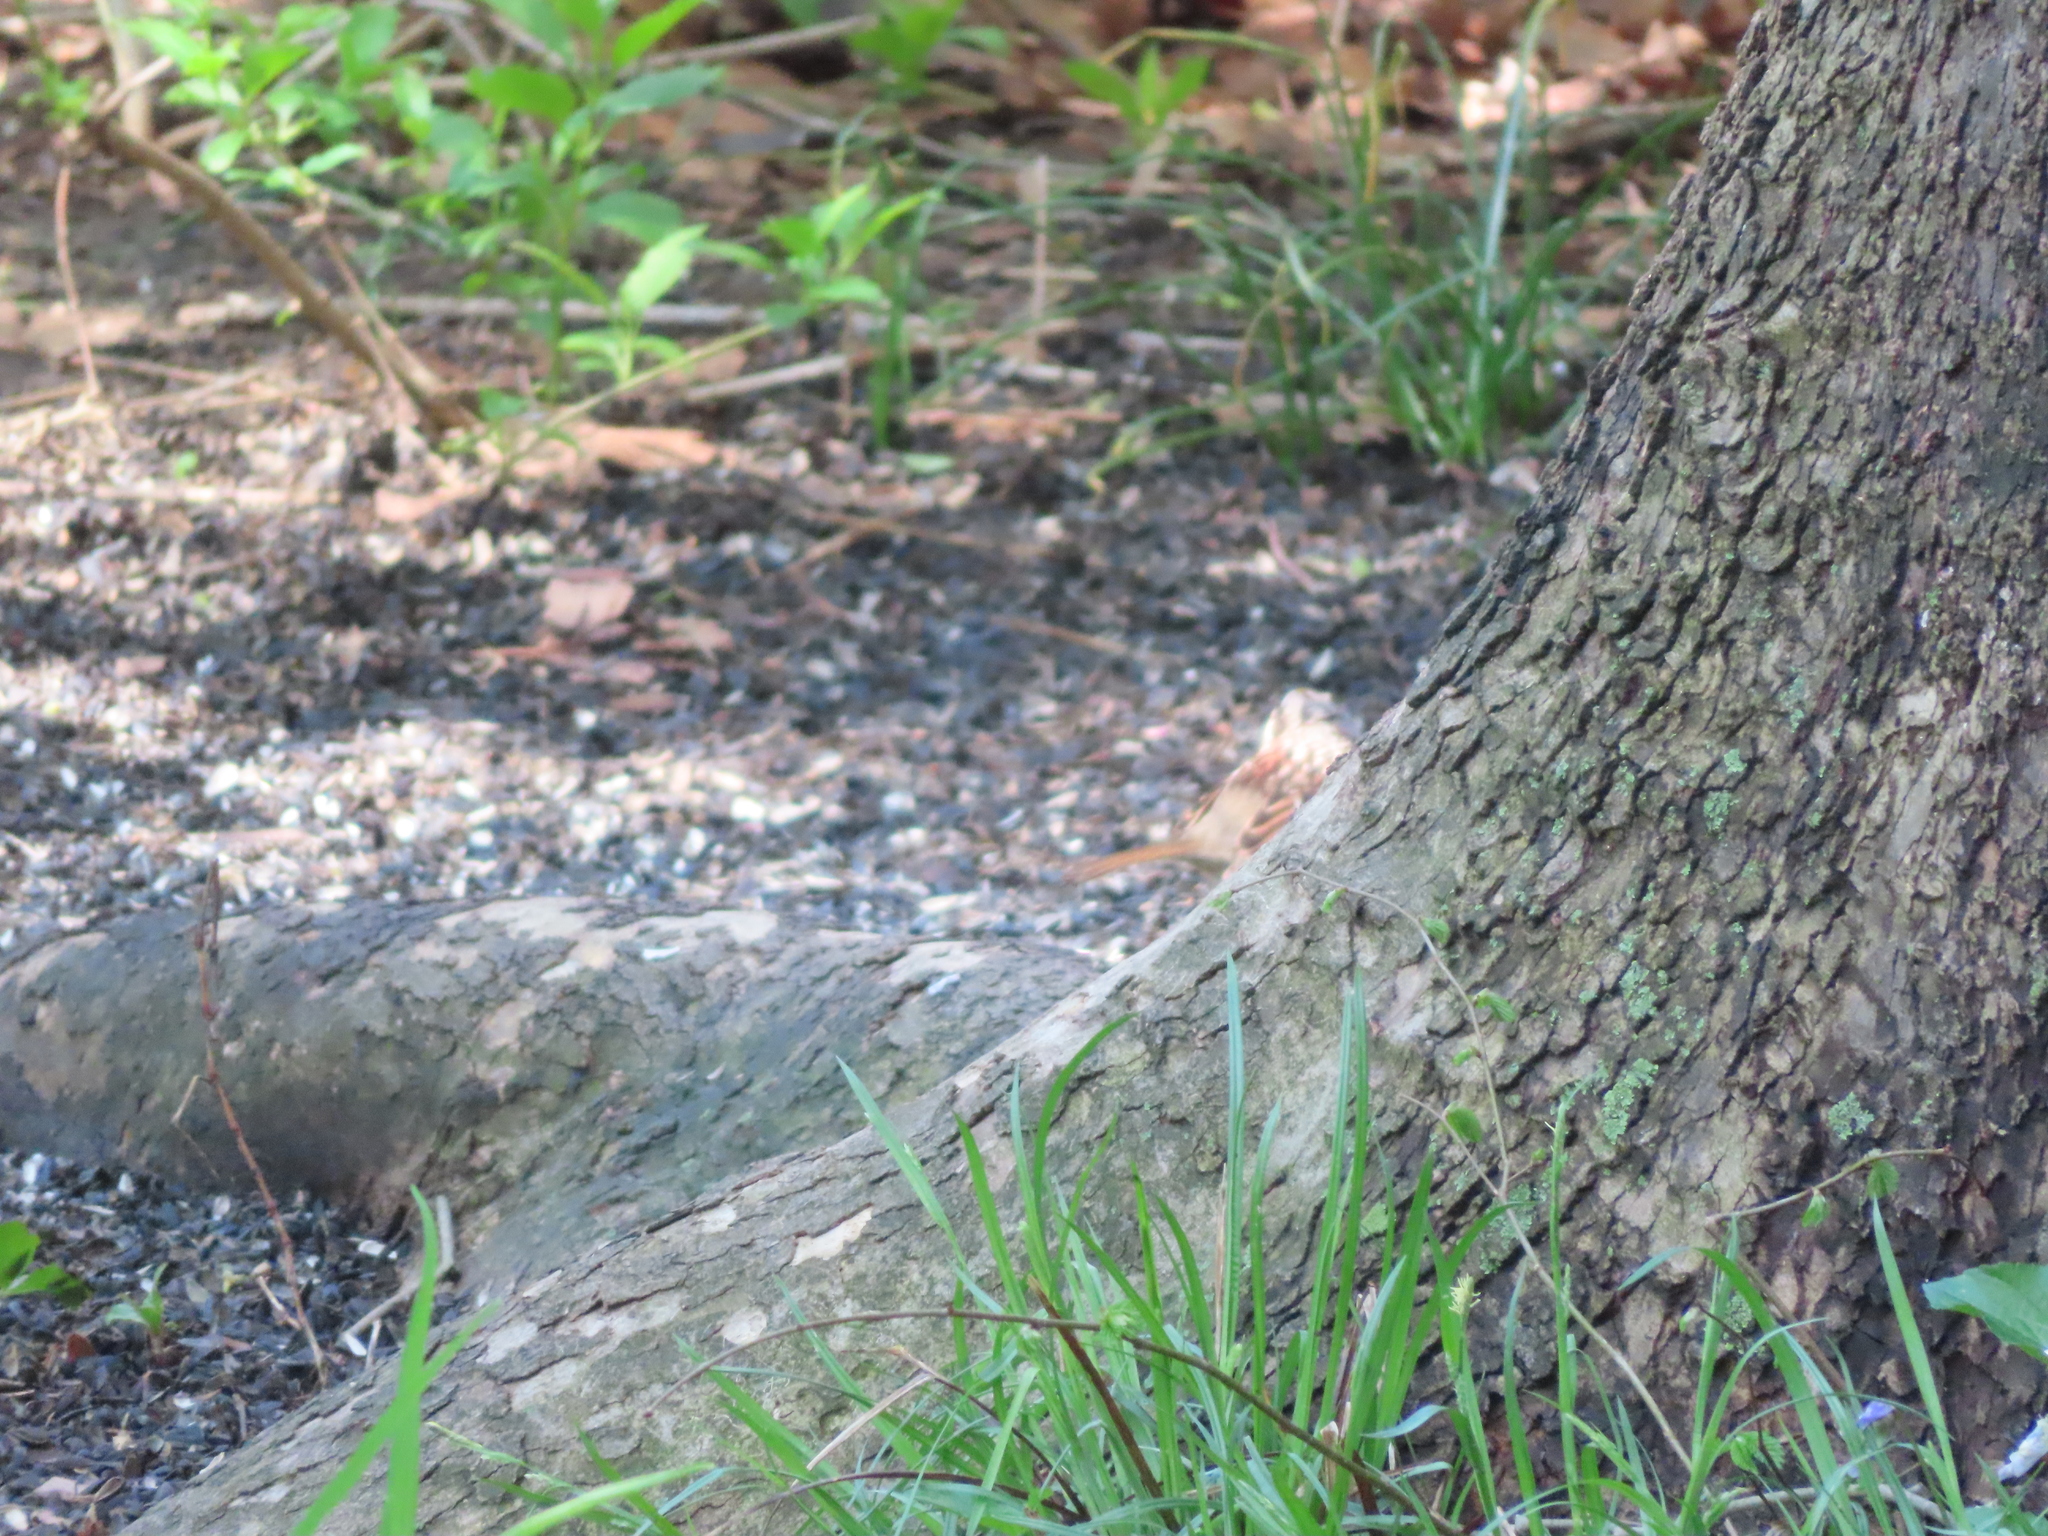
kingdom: Animalia
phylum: Chordata
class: Aves
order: Passeriformes
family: Passerellidae
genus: Zonotrichia
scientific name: Zonotrichia albicollis
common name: White-throated sparrow
